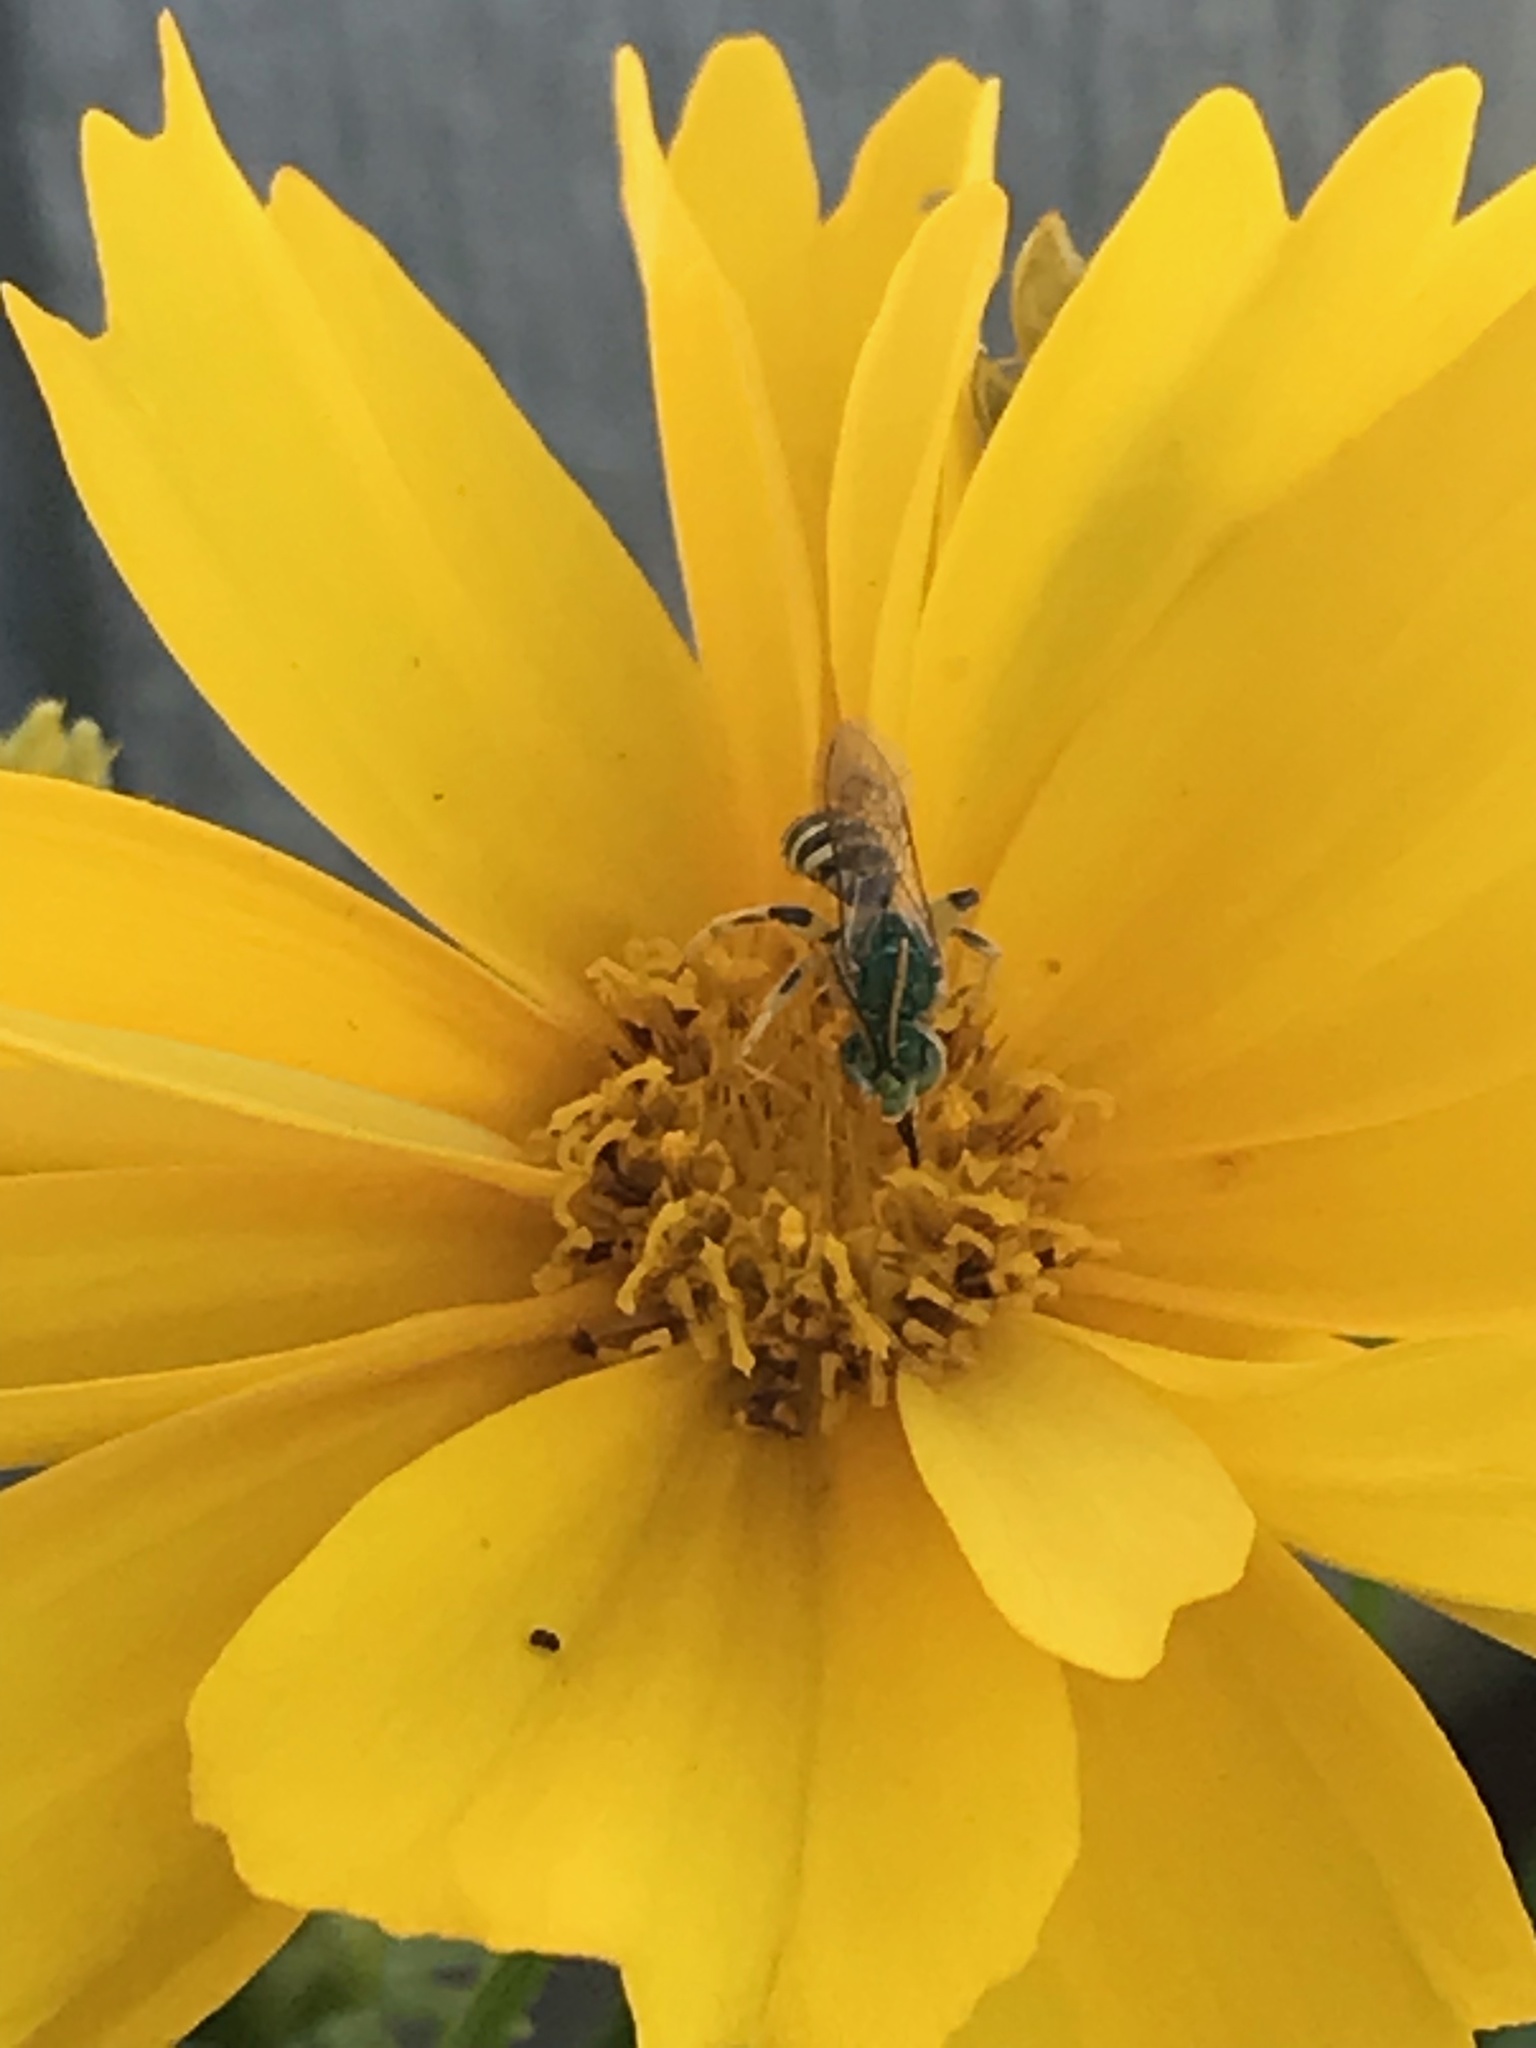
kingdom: Animalia
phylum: Arthropoda
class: Insecta
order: Hymenoptera
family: Halictidae
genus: Agapostemon
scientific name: Agapostemon texanus
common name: Texas striped sweat bee
